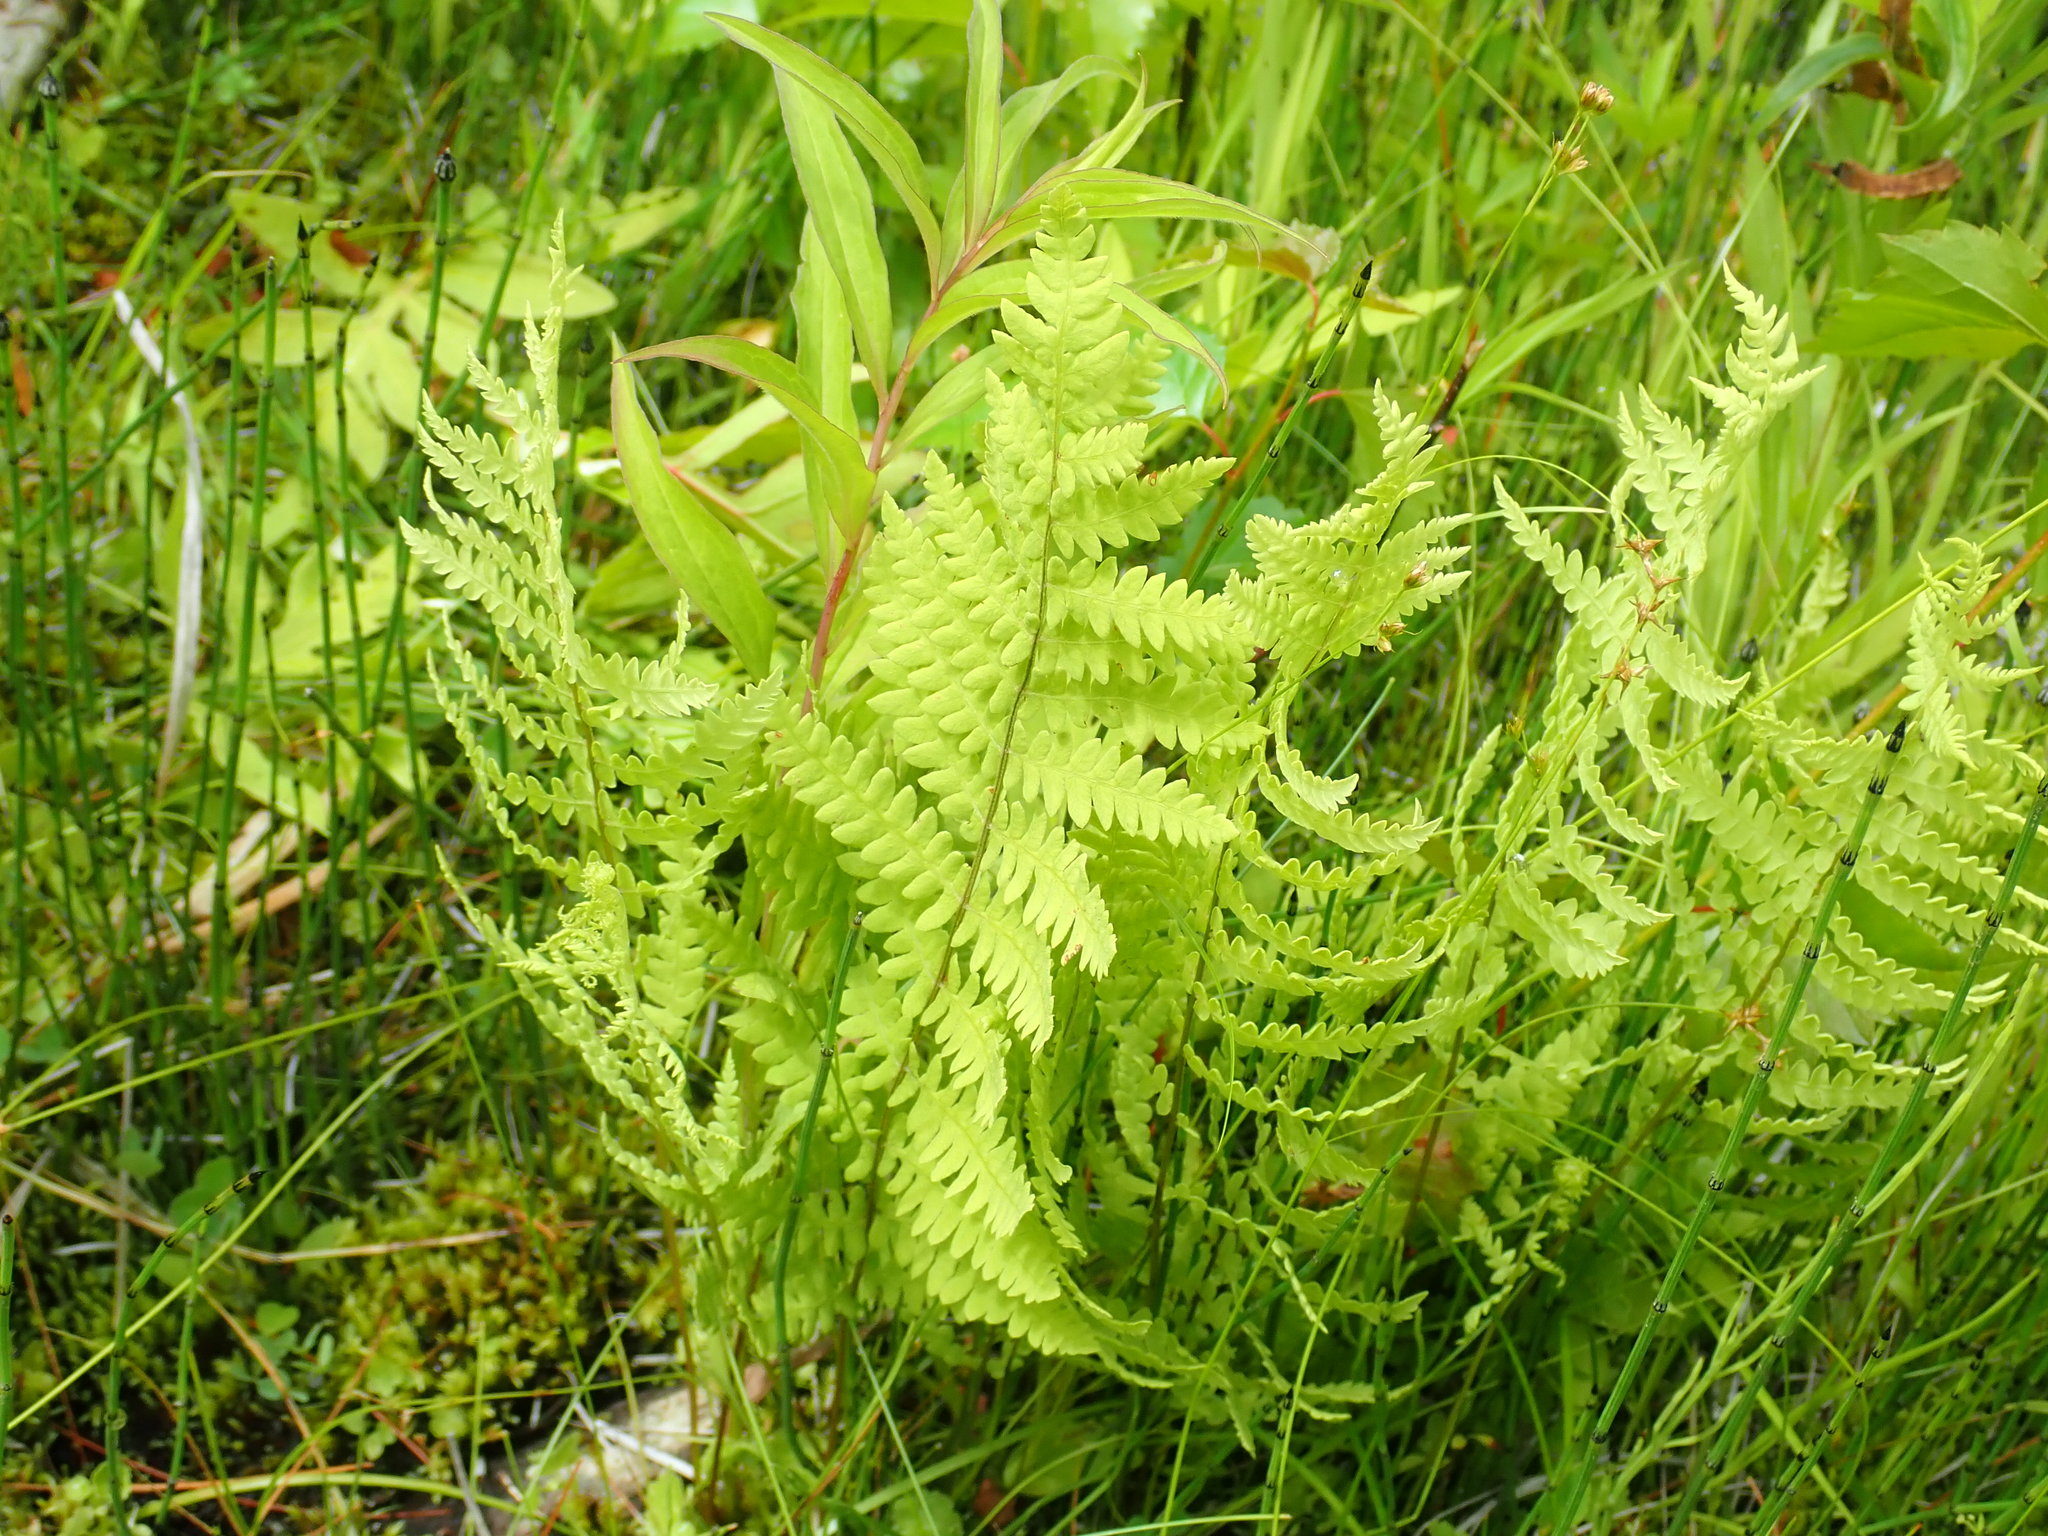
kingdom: Plantae
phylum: Tracheophyta
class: Polypodiopsida
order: Polypodiales
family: Thelypteridaceae
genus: Thelypteris
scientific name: Thelypteris palustris
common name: Marsh fern
